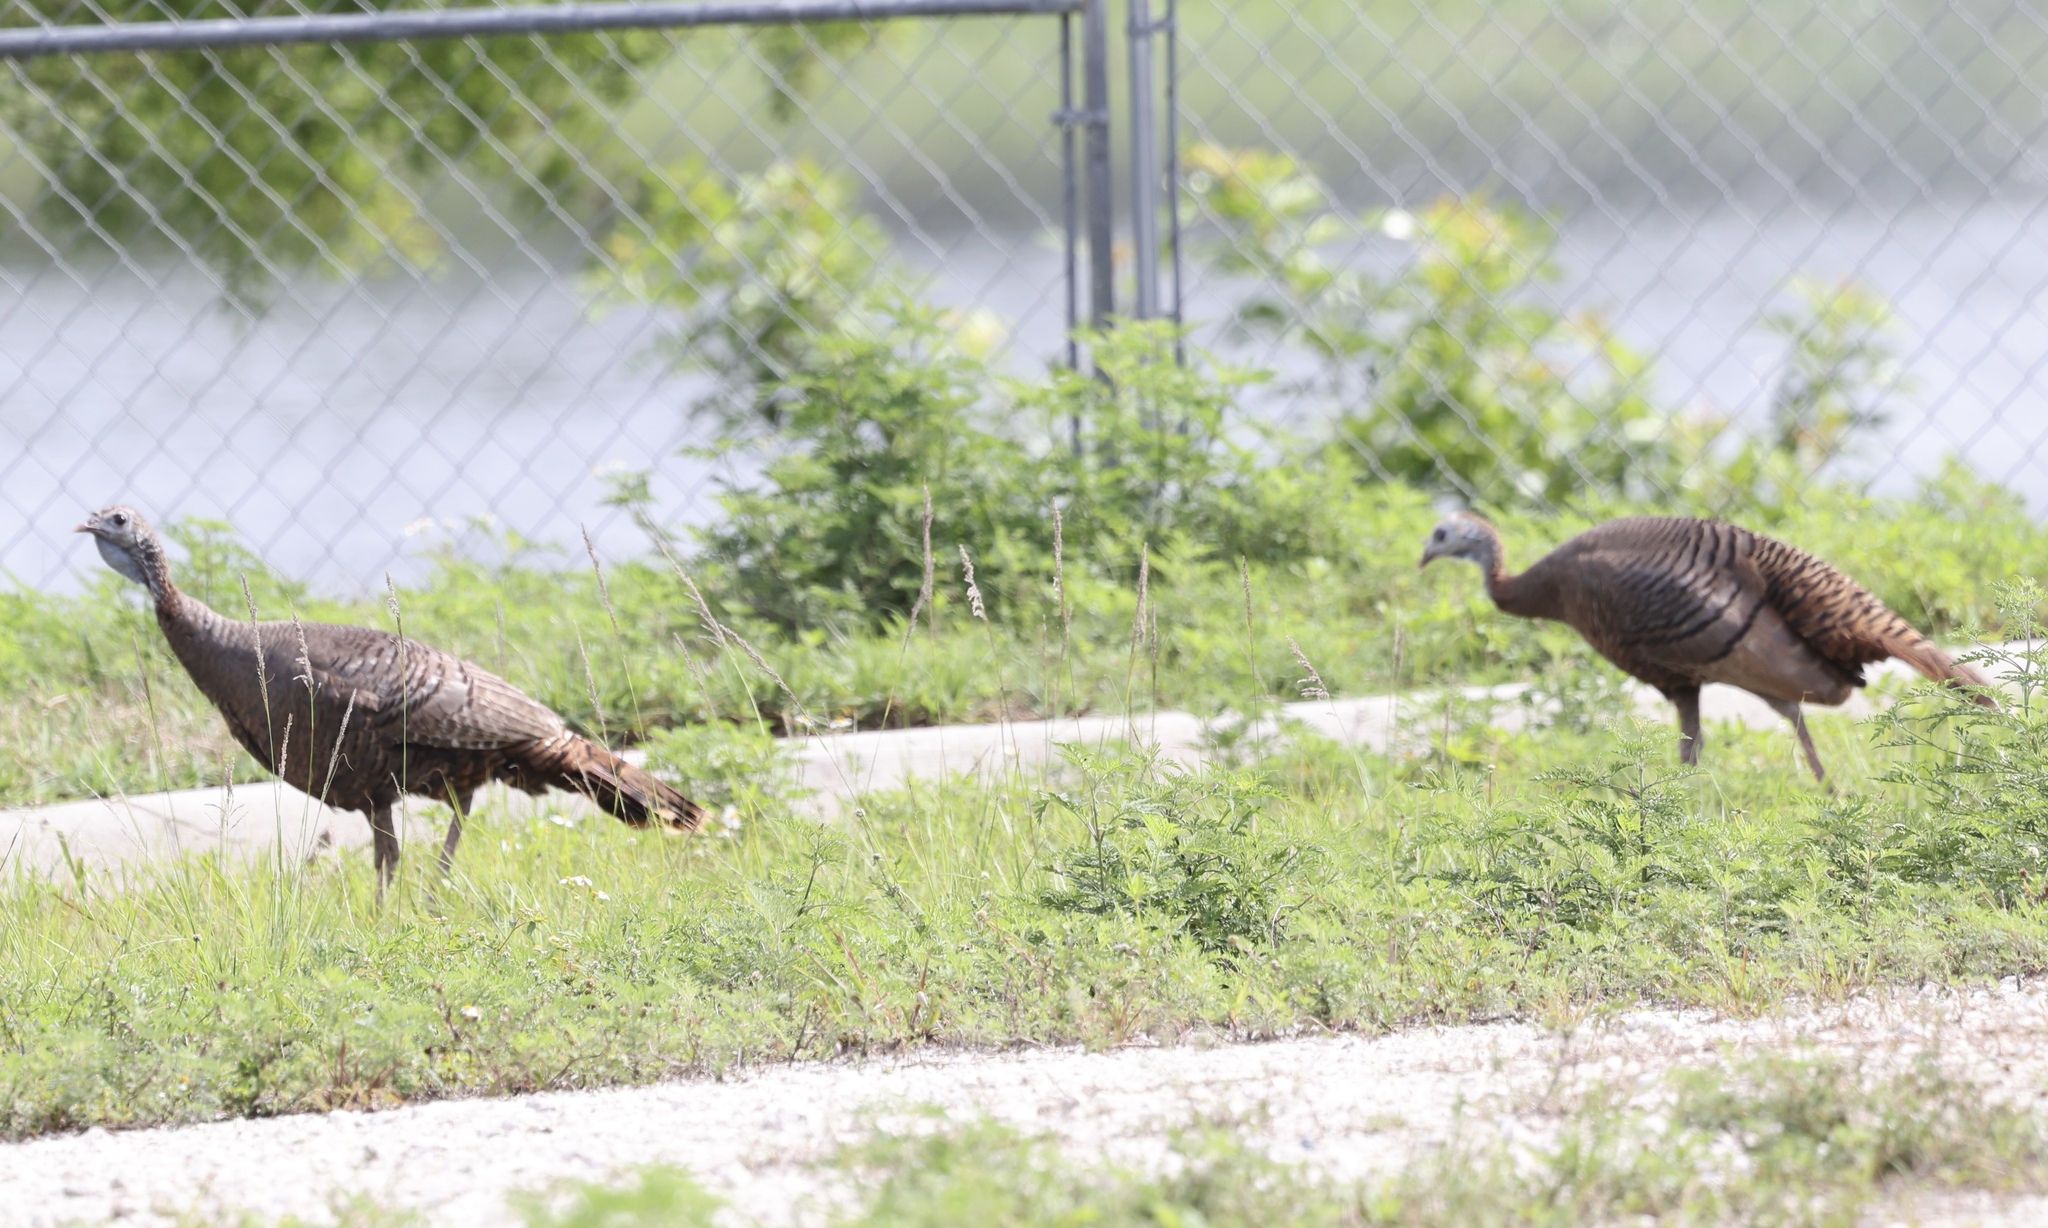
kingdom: Animalia
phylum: Chordata
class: Aves
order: Galliformes
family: Phasianidae
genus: Meleagris
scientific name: Meleagris gallopavo
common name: Wild turkey
